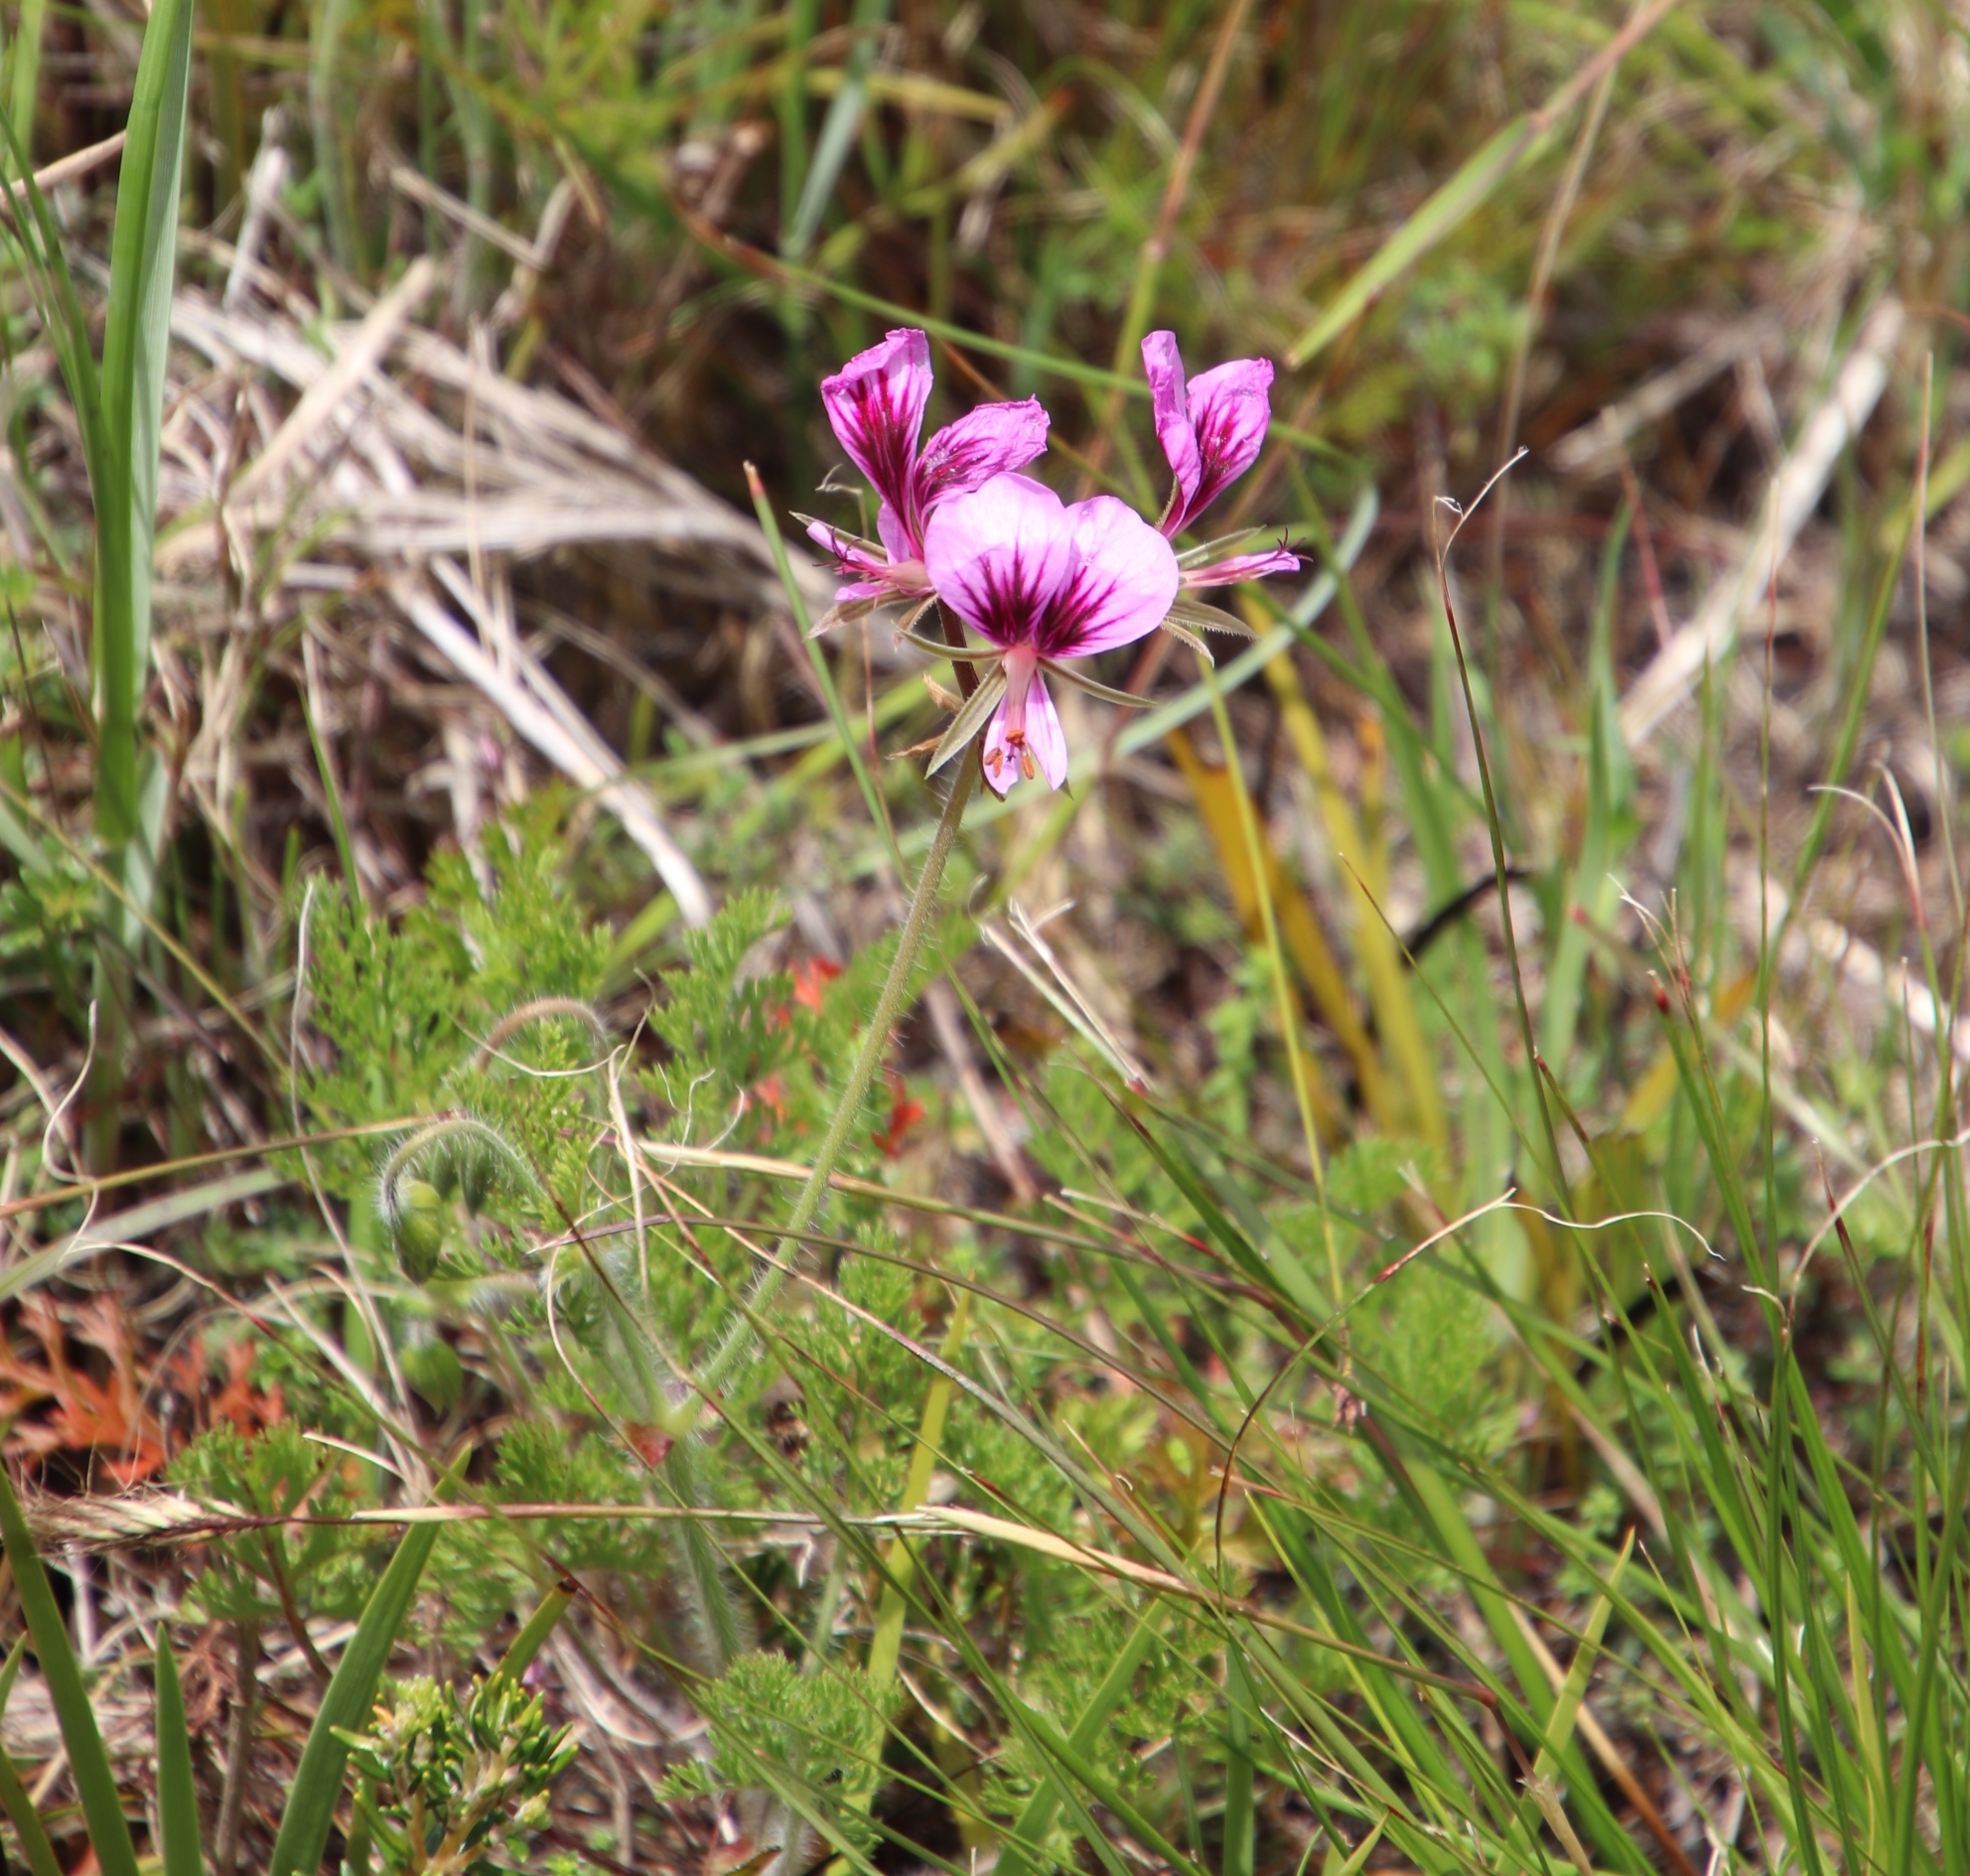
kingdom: Plantae
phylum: Tracheophyta
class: Magnoliopsida
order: Geraniales
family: Geraniaceae
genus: Pelargonium
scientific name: Pelargonium myrrhifolium
